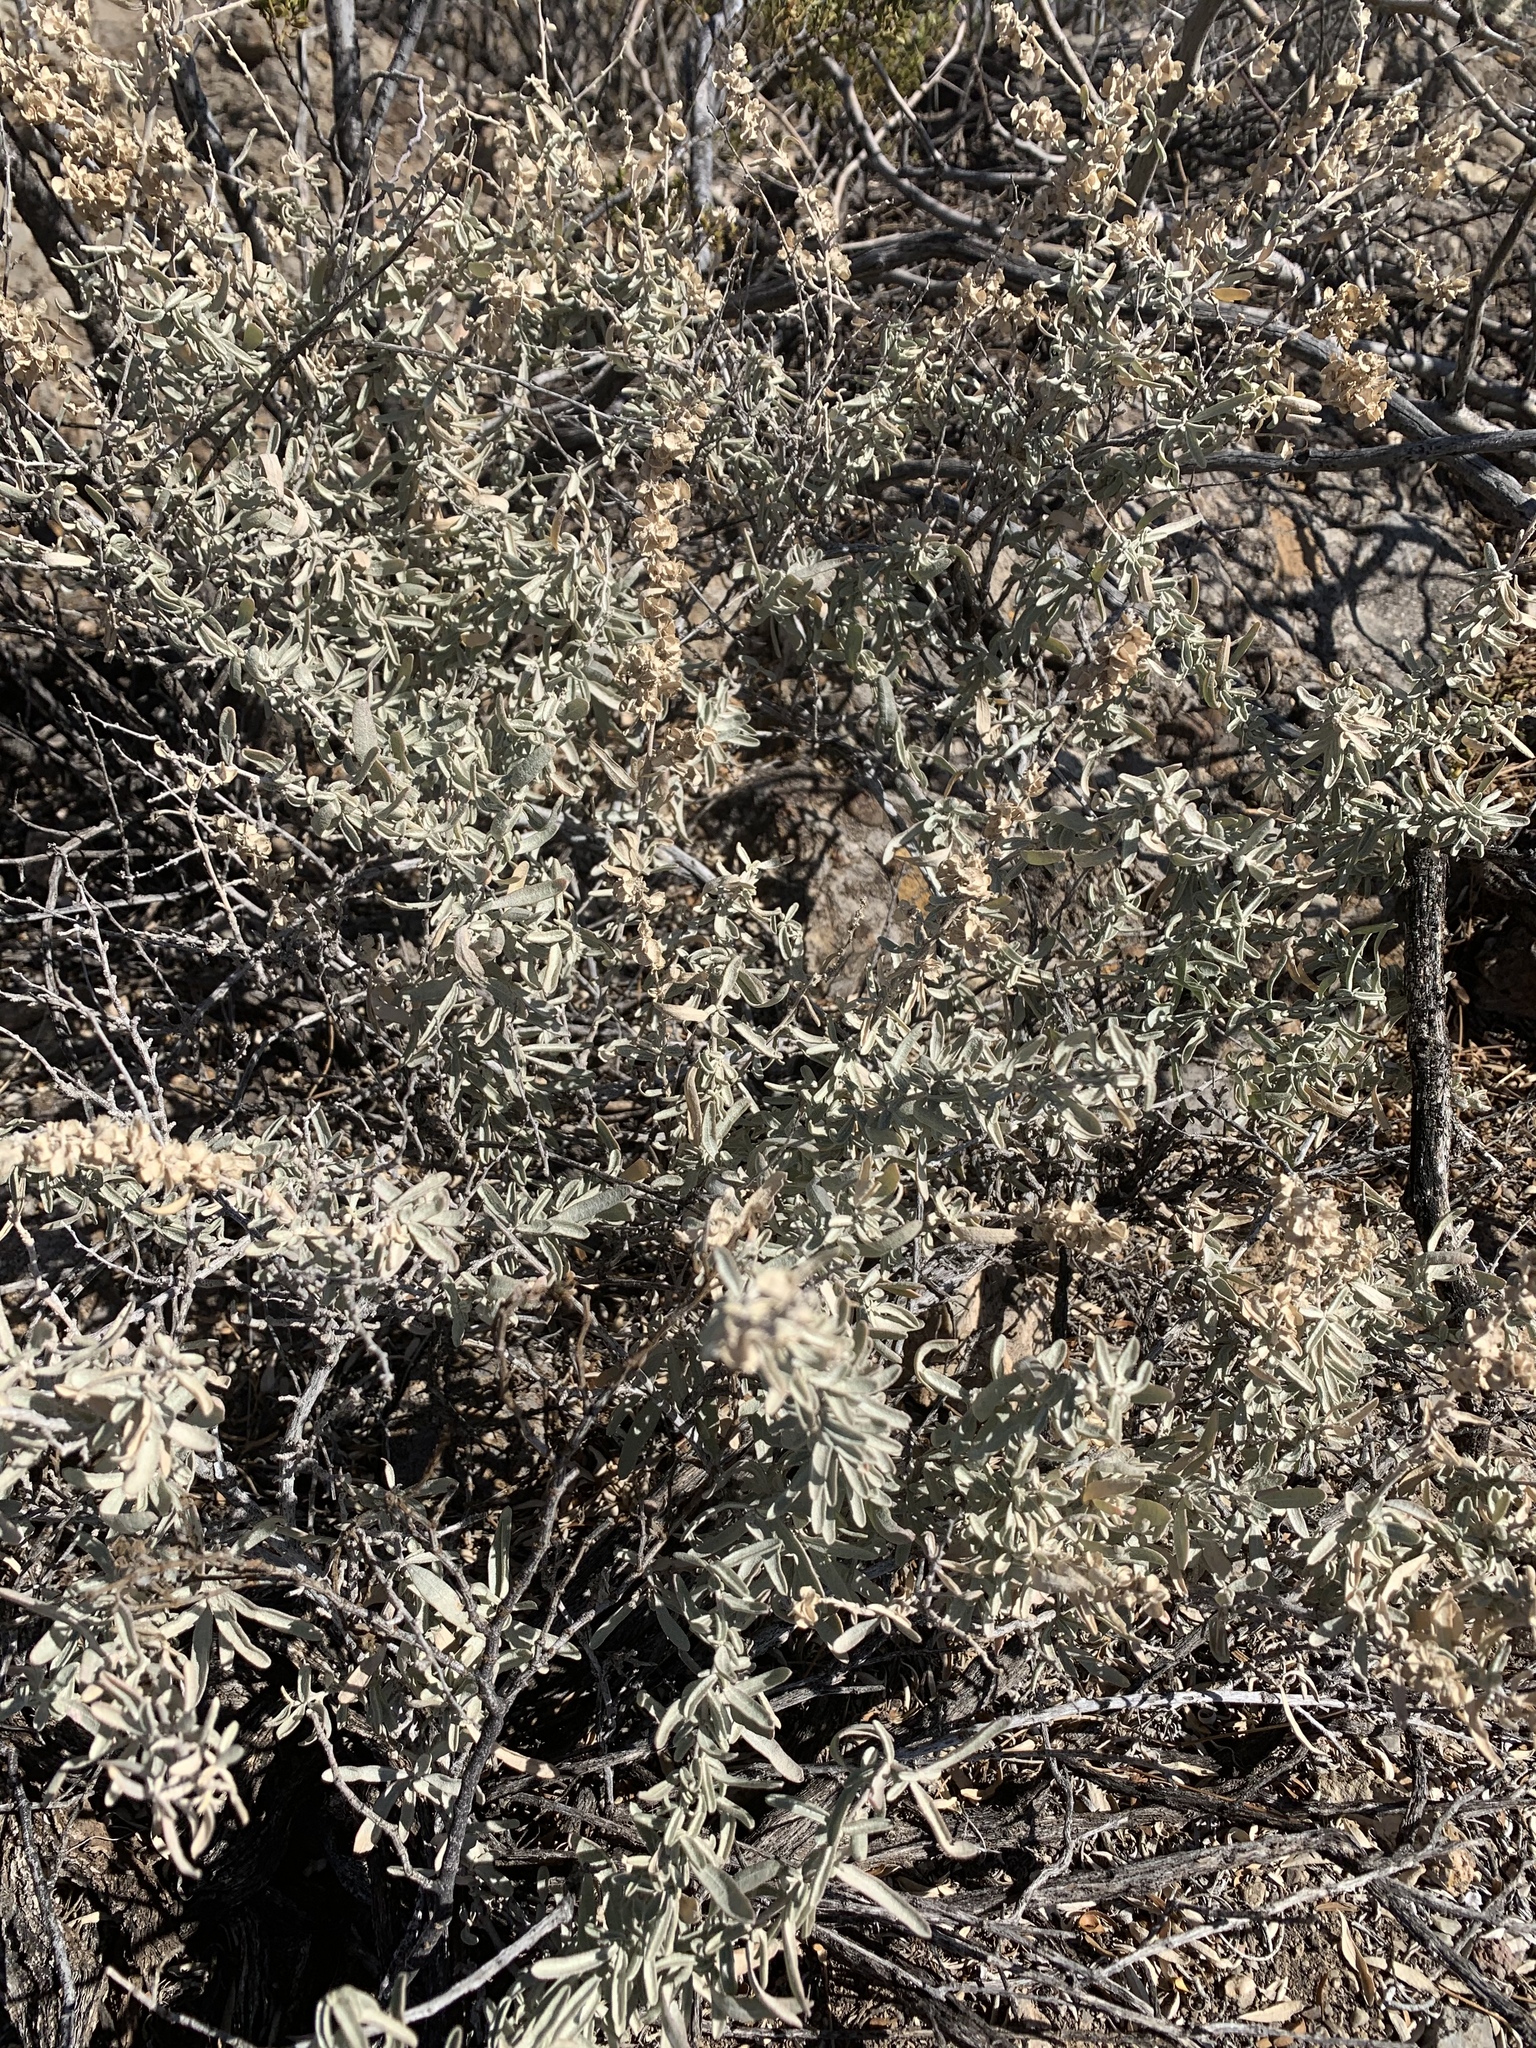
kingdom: Plantae
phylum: Tracheophyta
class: Magnoliopsida
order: Caryophyllales
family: Amaranthaceae
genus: Atriplex
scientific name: Atriplex canescens
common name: Four-wing saltbush
